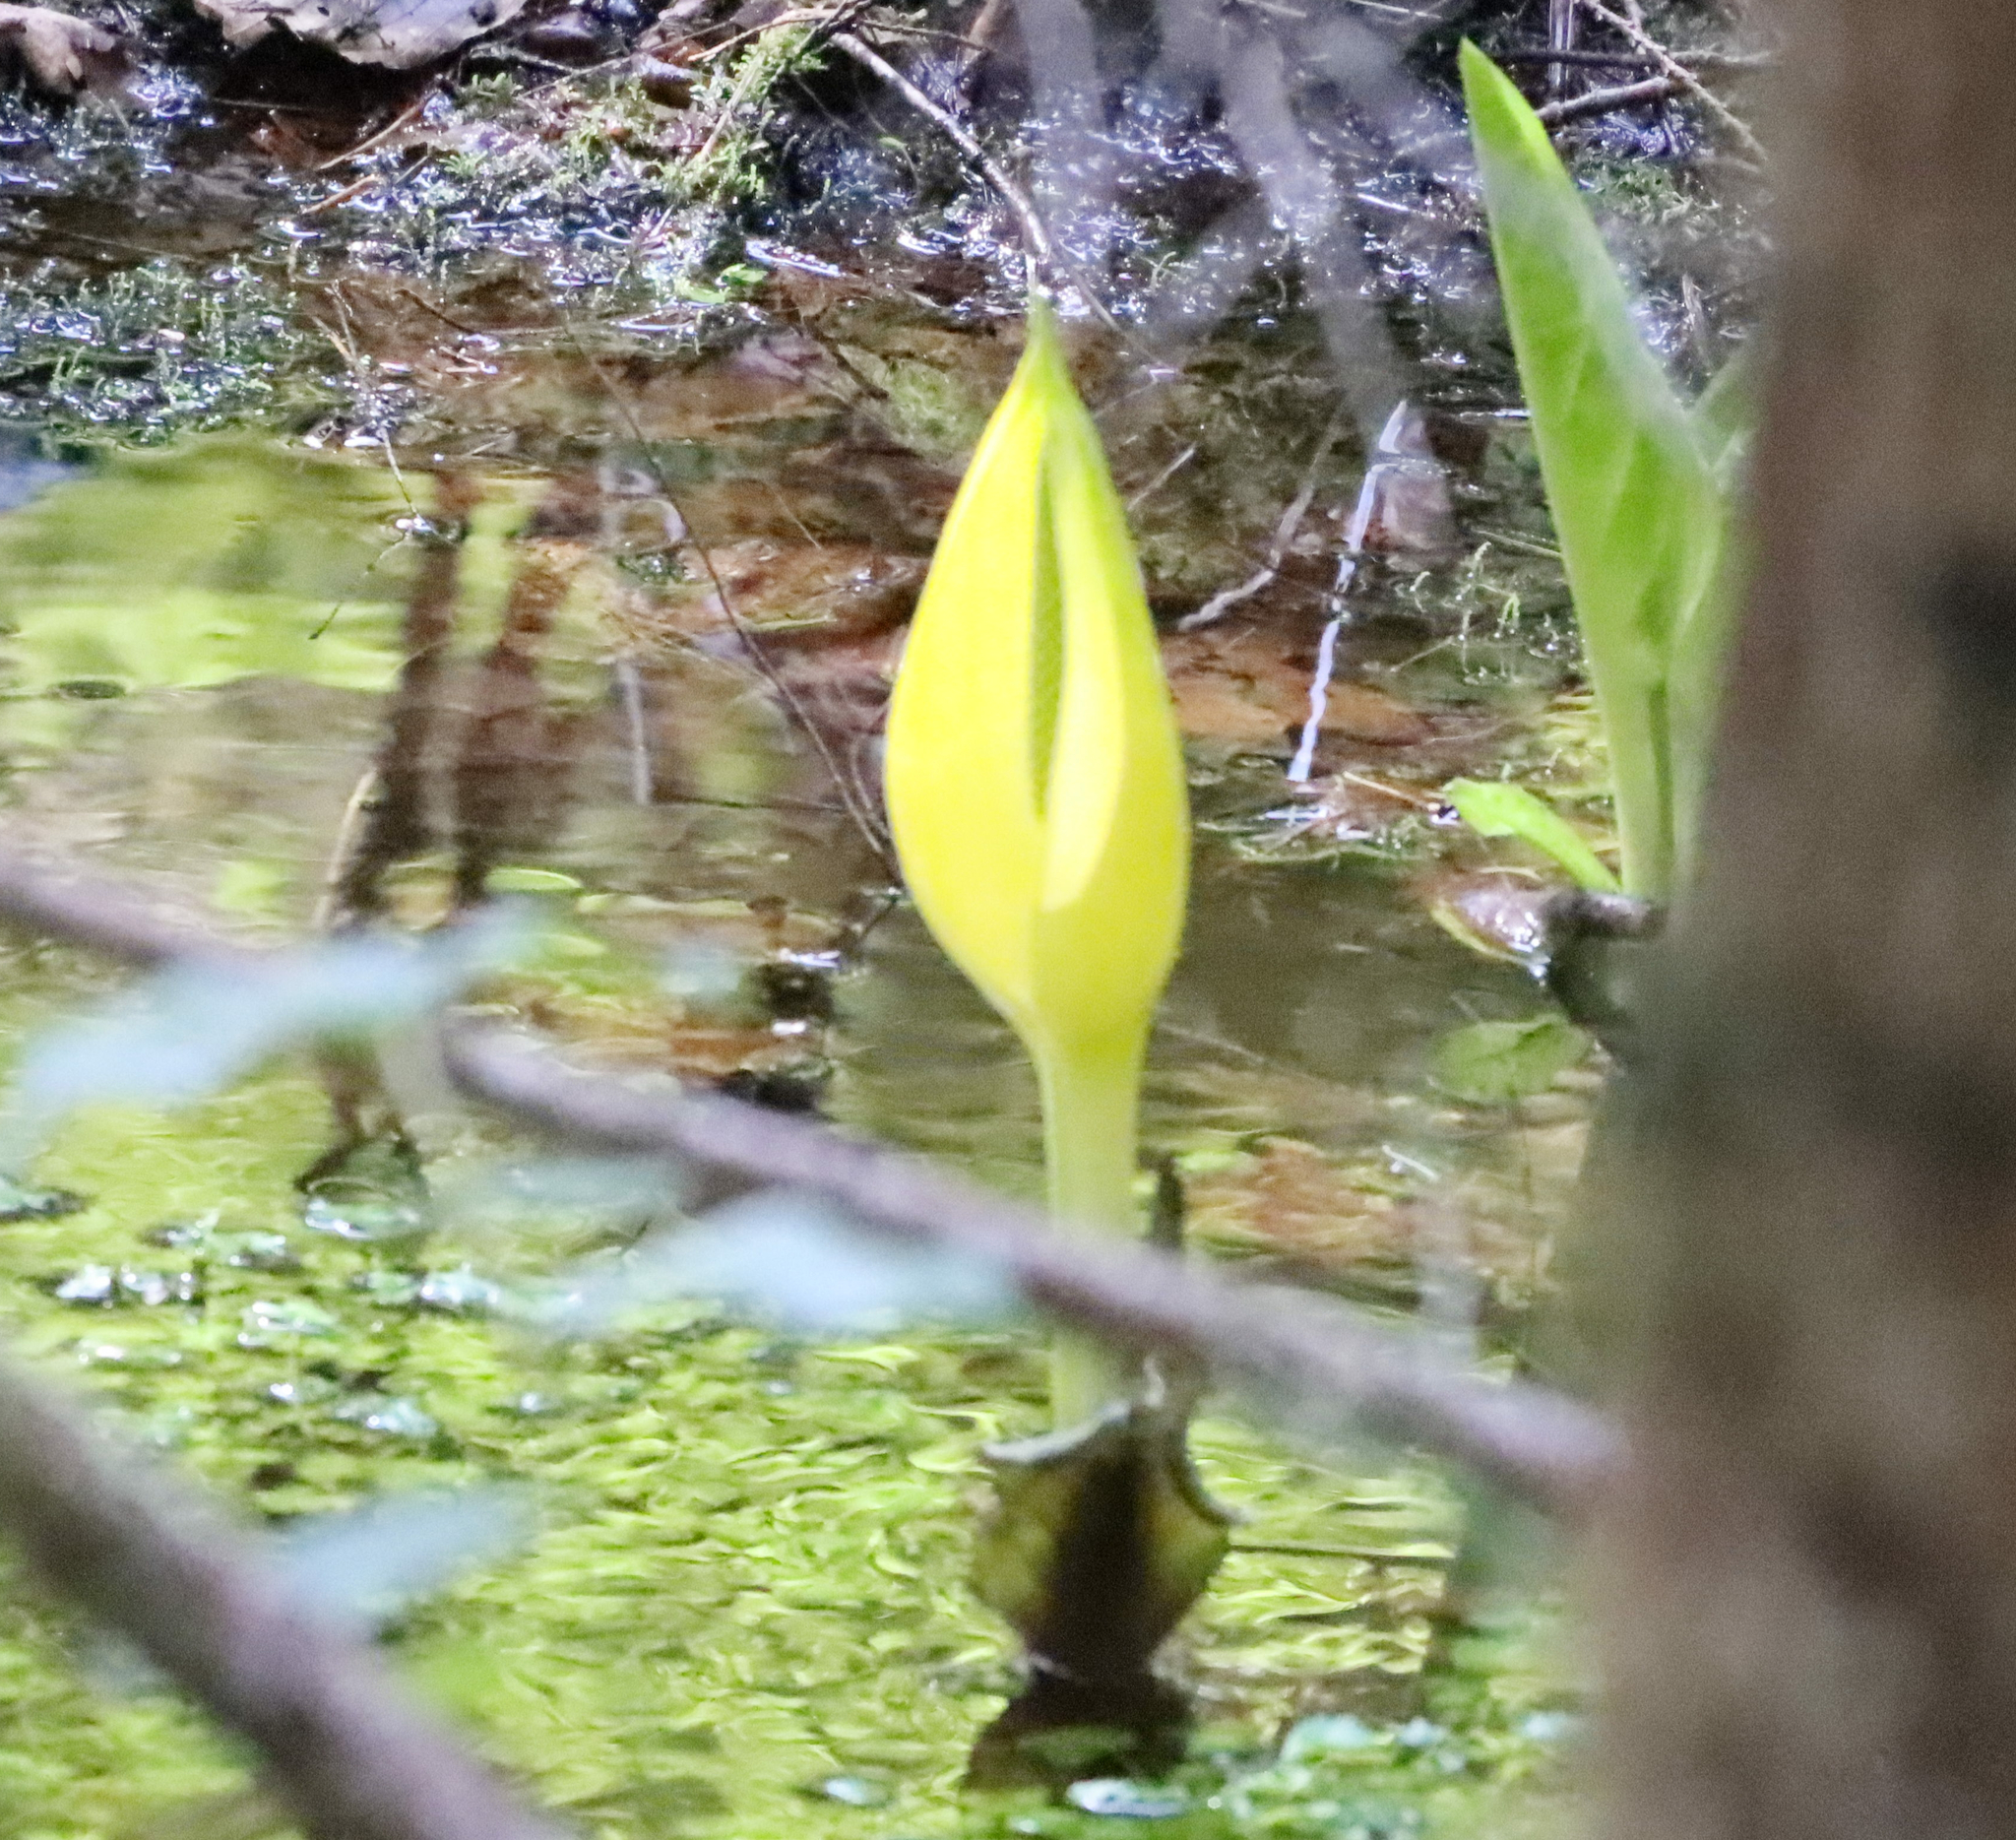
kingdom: Plantae
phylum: Tracheophyta
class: Liliopsida
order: Alismatales
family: Araceae
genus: Lysichiton
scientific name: Lysichiton americanus
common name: American skunk cabbage
